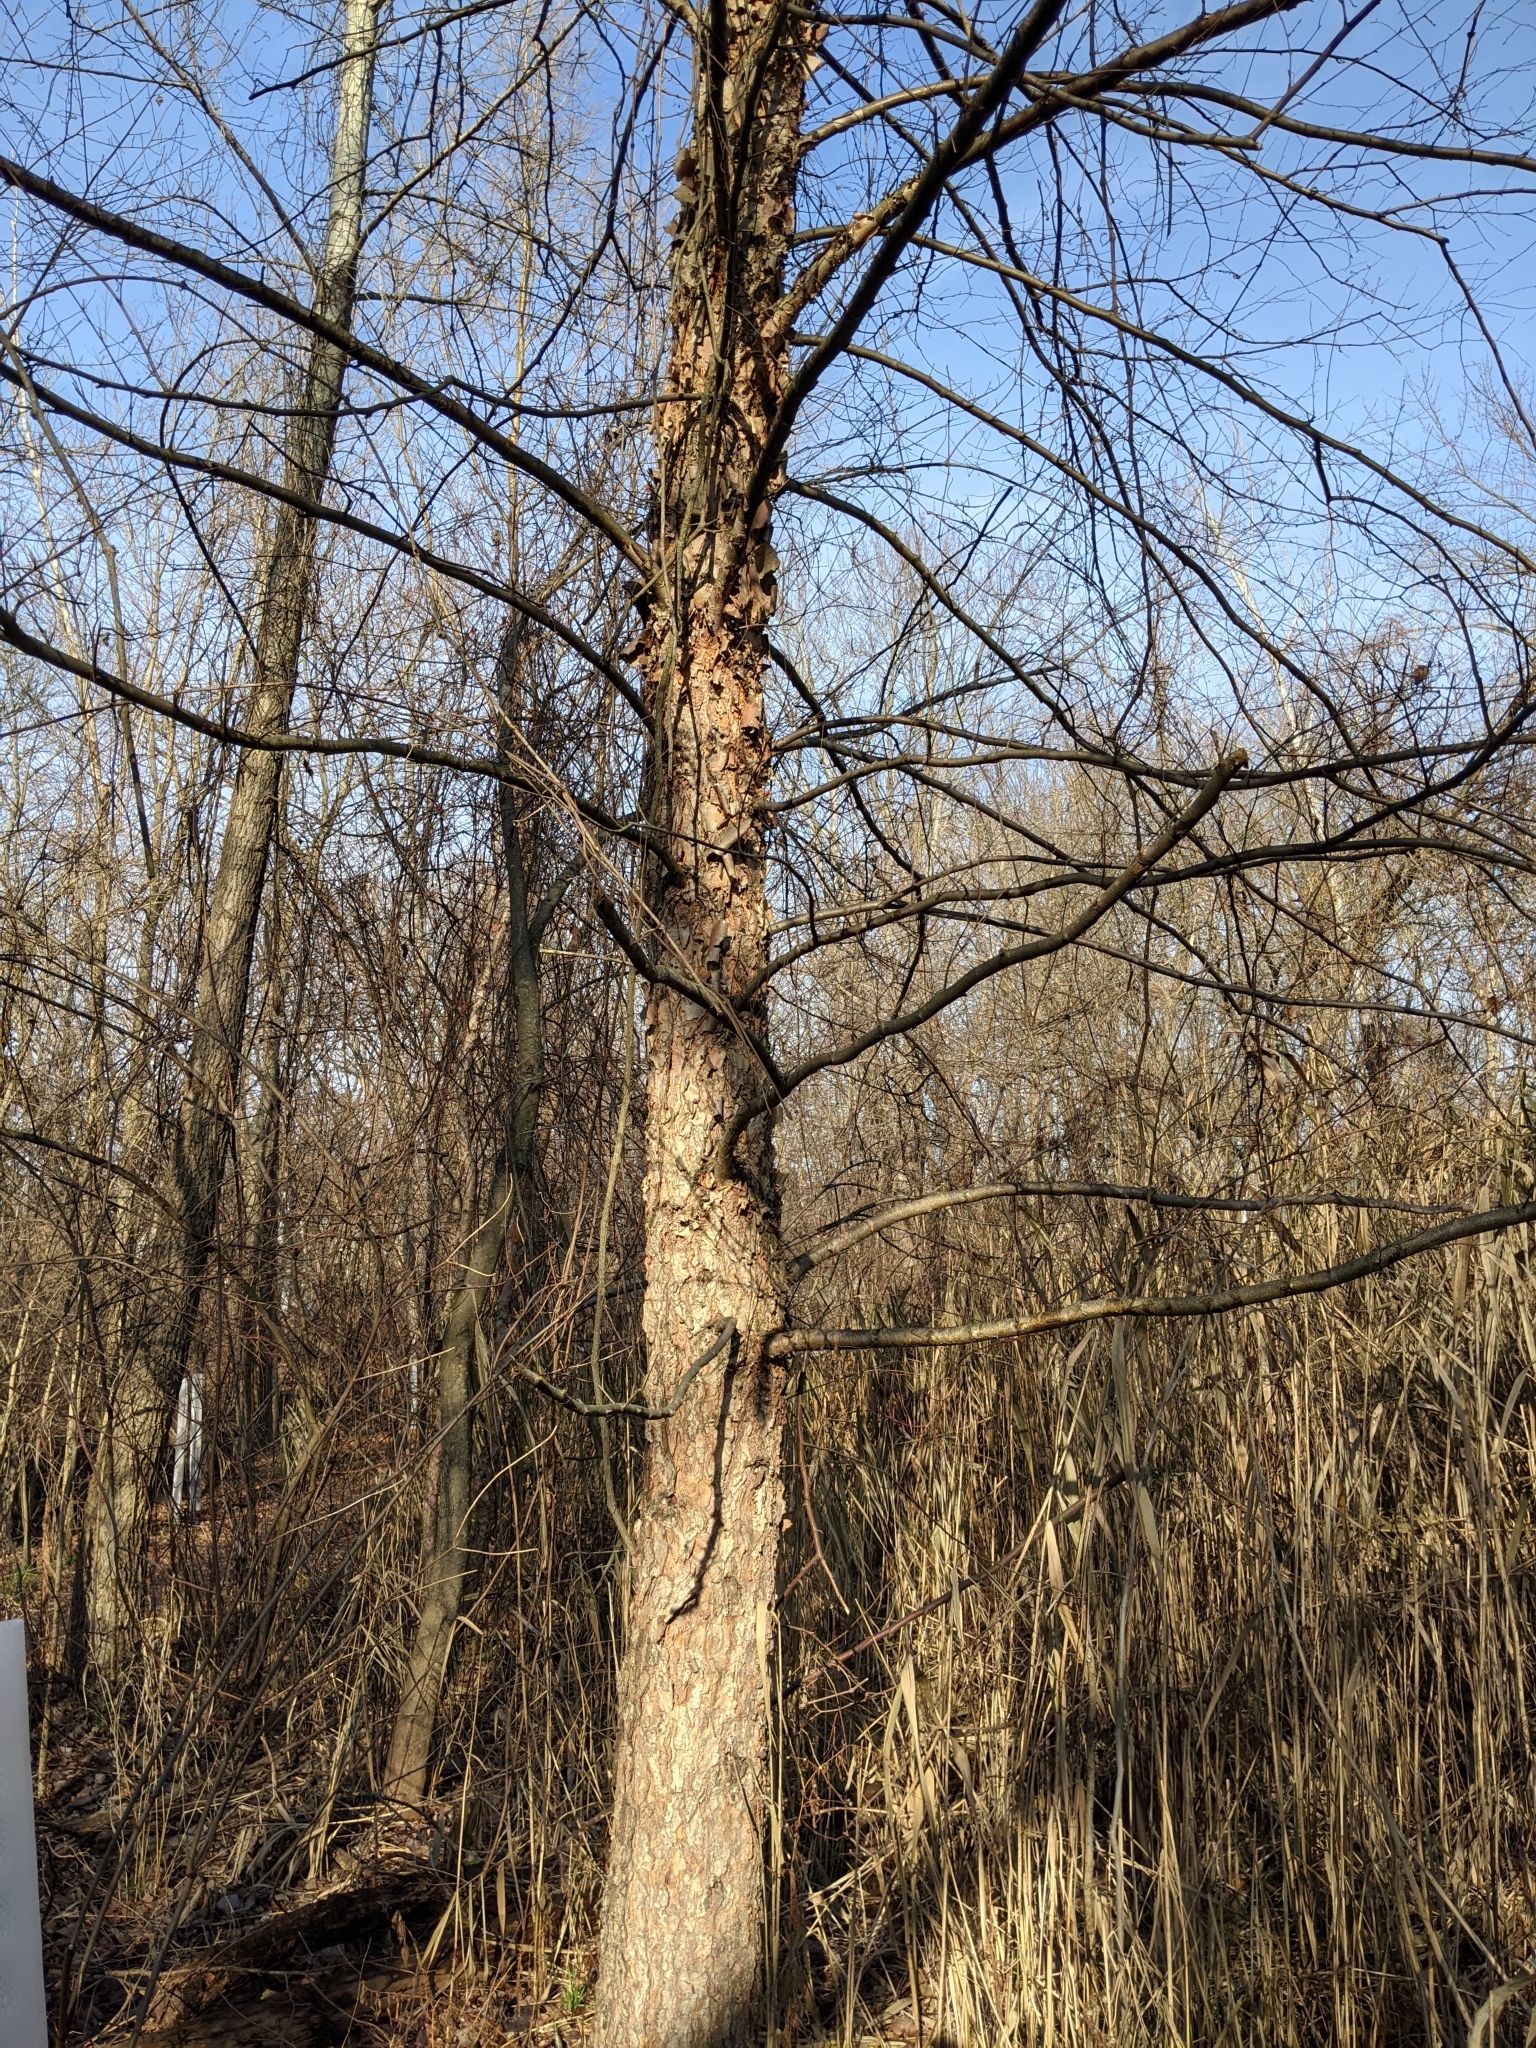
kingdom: Plantae
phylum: Tracheophyta
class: Magnoliopsida
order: Fagales
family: Betulaceae
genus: Betula
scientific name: Betula nigra
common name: Black birch
